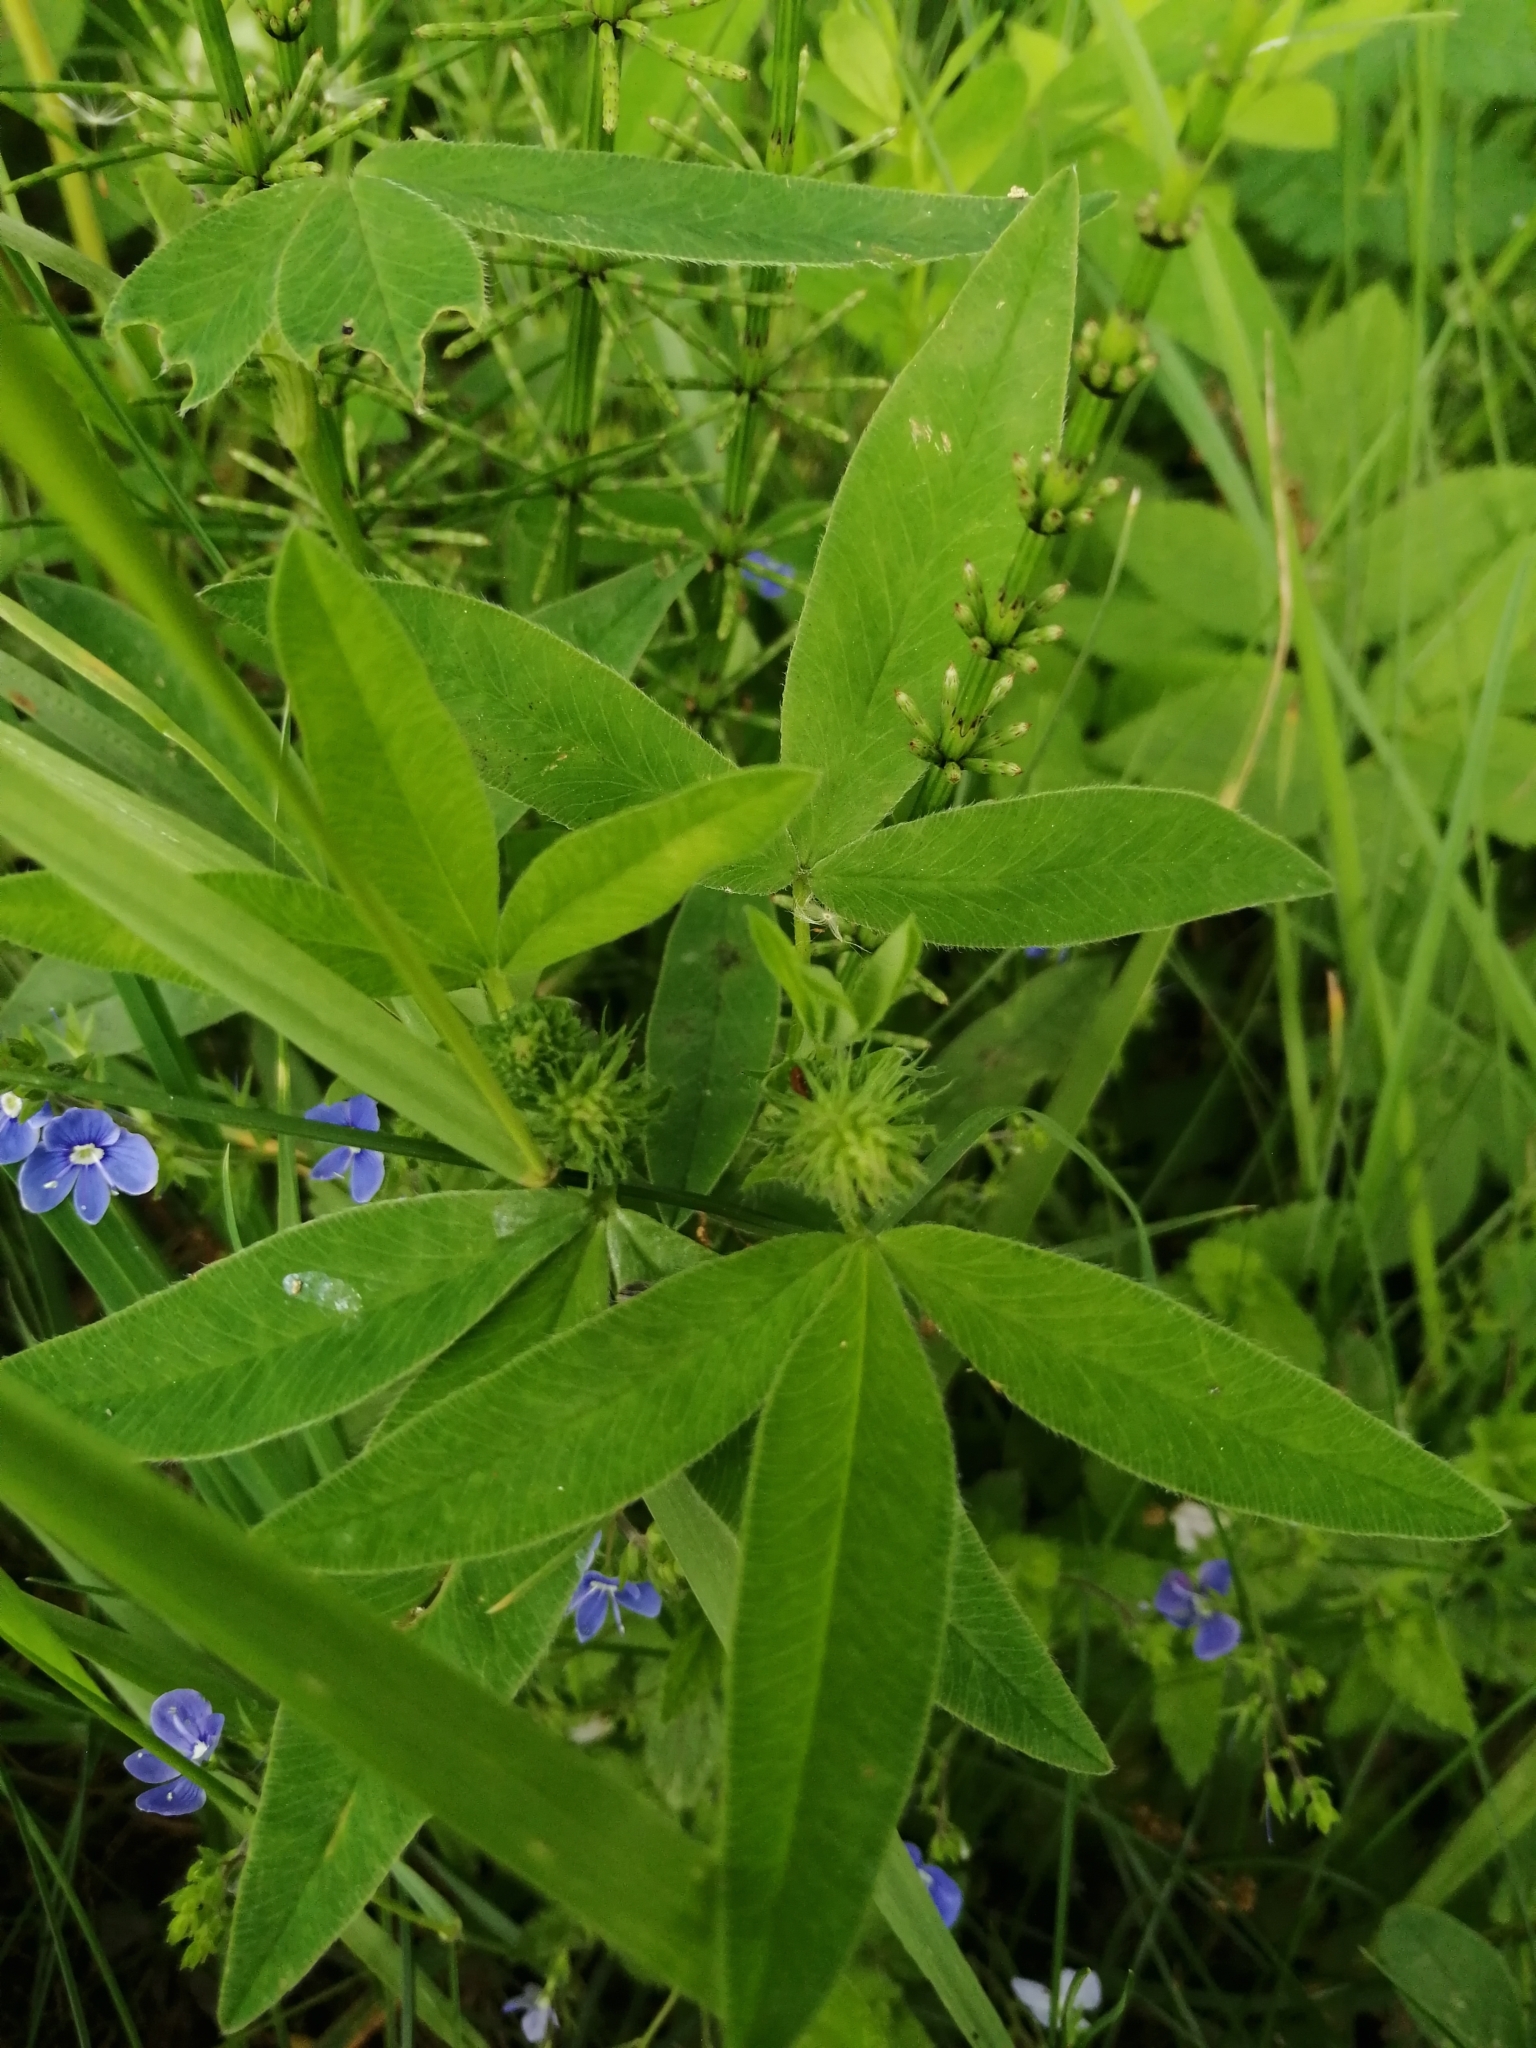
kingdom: Plantae
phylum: Tracheophyta
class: Magnoliopsida
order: Fabales
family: Fabaceae
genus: Trifolium
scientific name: Trifolium medium
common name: Zigzag clover
